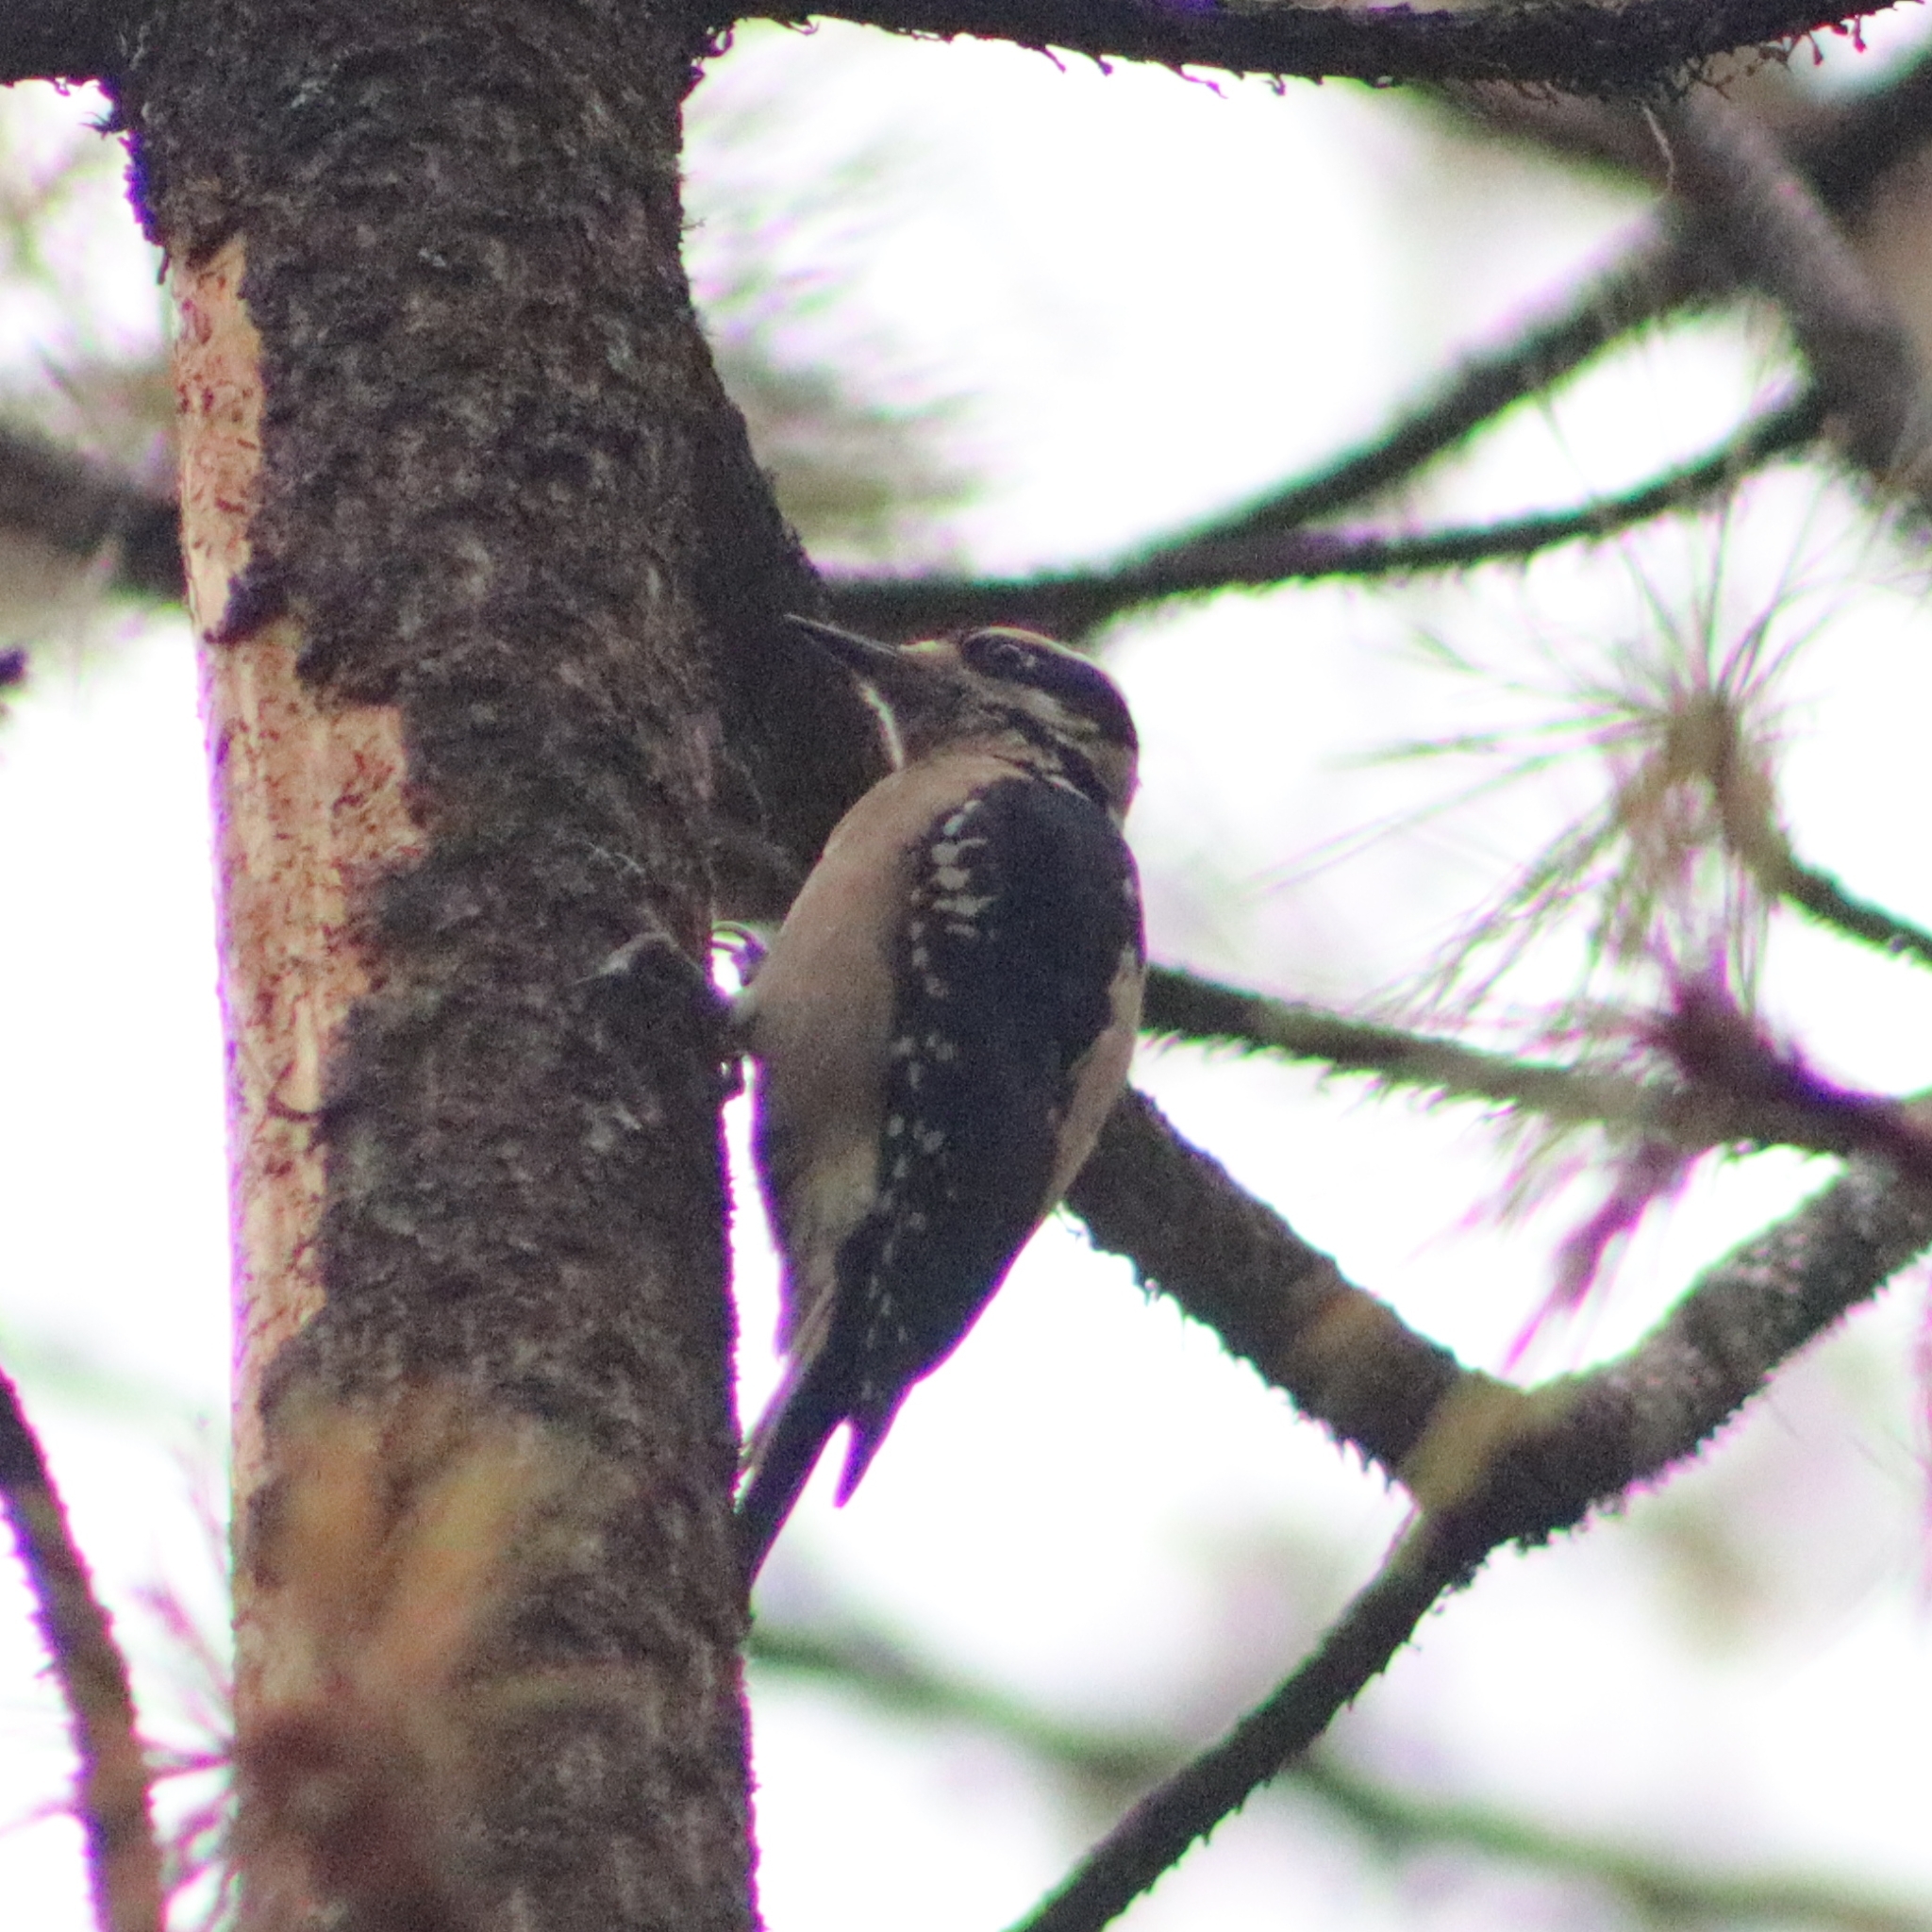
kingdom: Animalia
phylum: Chordata
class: Aves
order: Piciformes
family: Picidae
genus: Leuconotopicus
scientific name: Leuconotopicus villosus
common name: Hairy woodpecker
